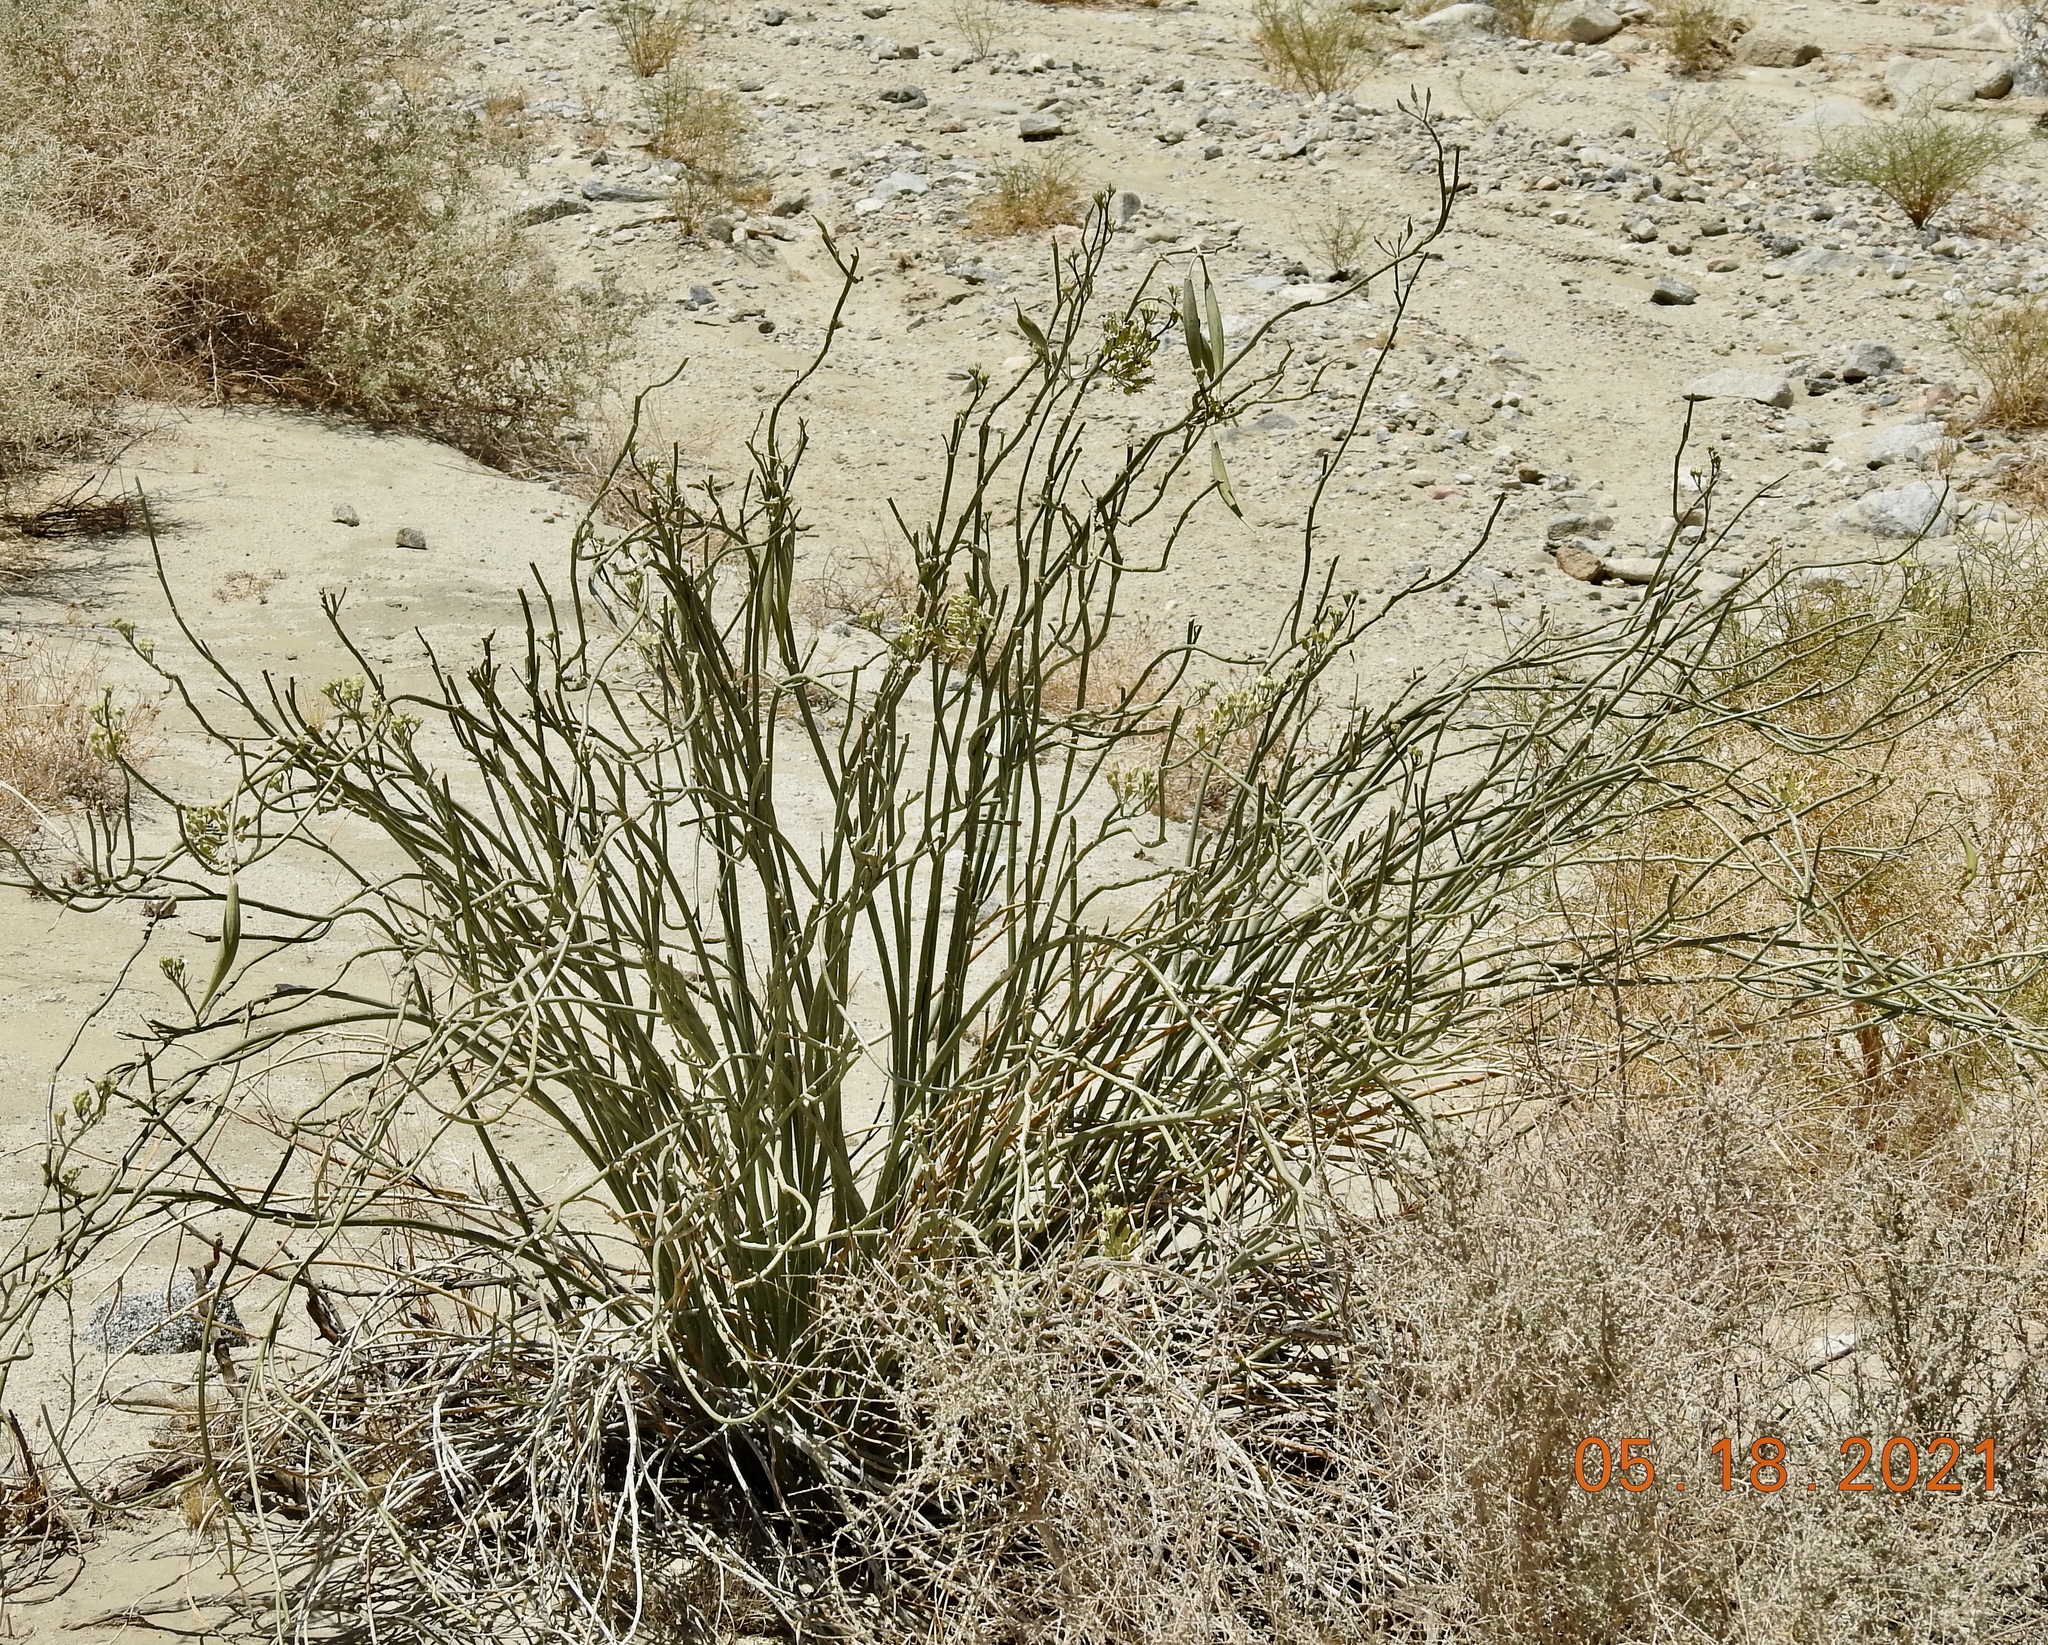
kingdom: Plantae
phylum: Tracheophyta
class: Magnoliopsida
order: Gentianales
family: Apocynaceae
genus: Asclepias
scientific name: Asclepias subulata
